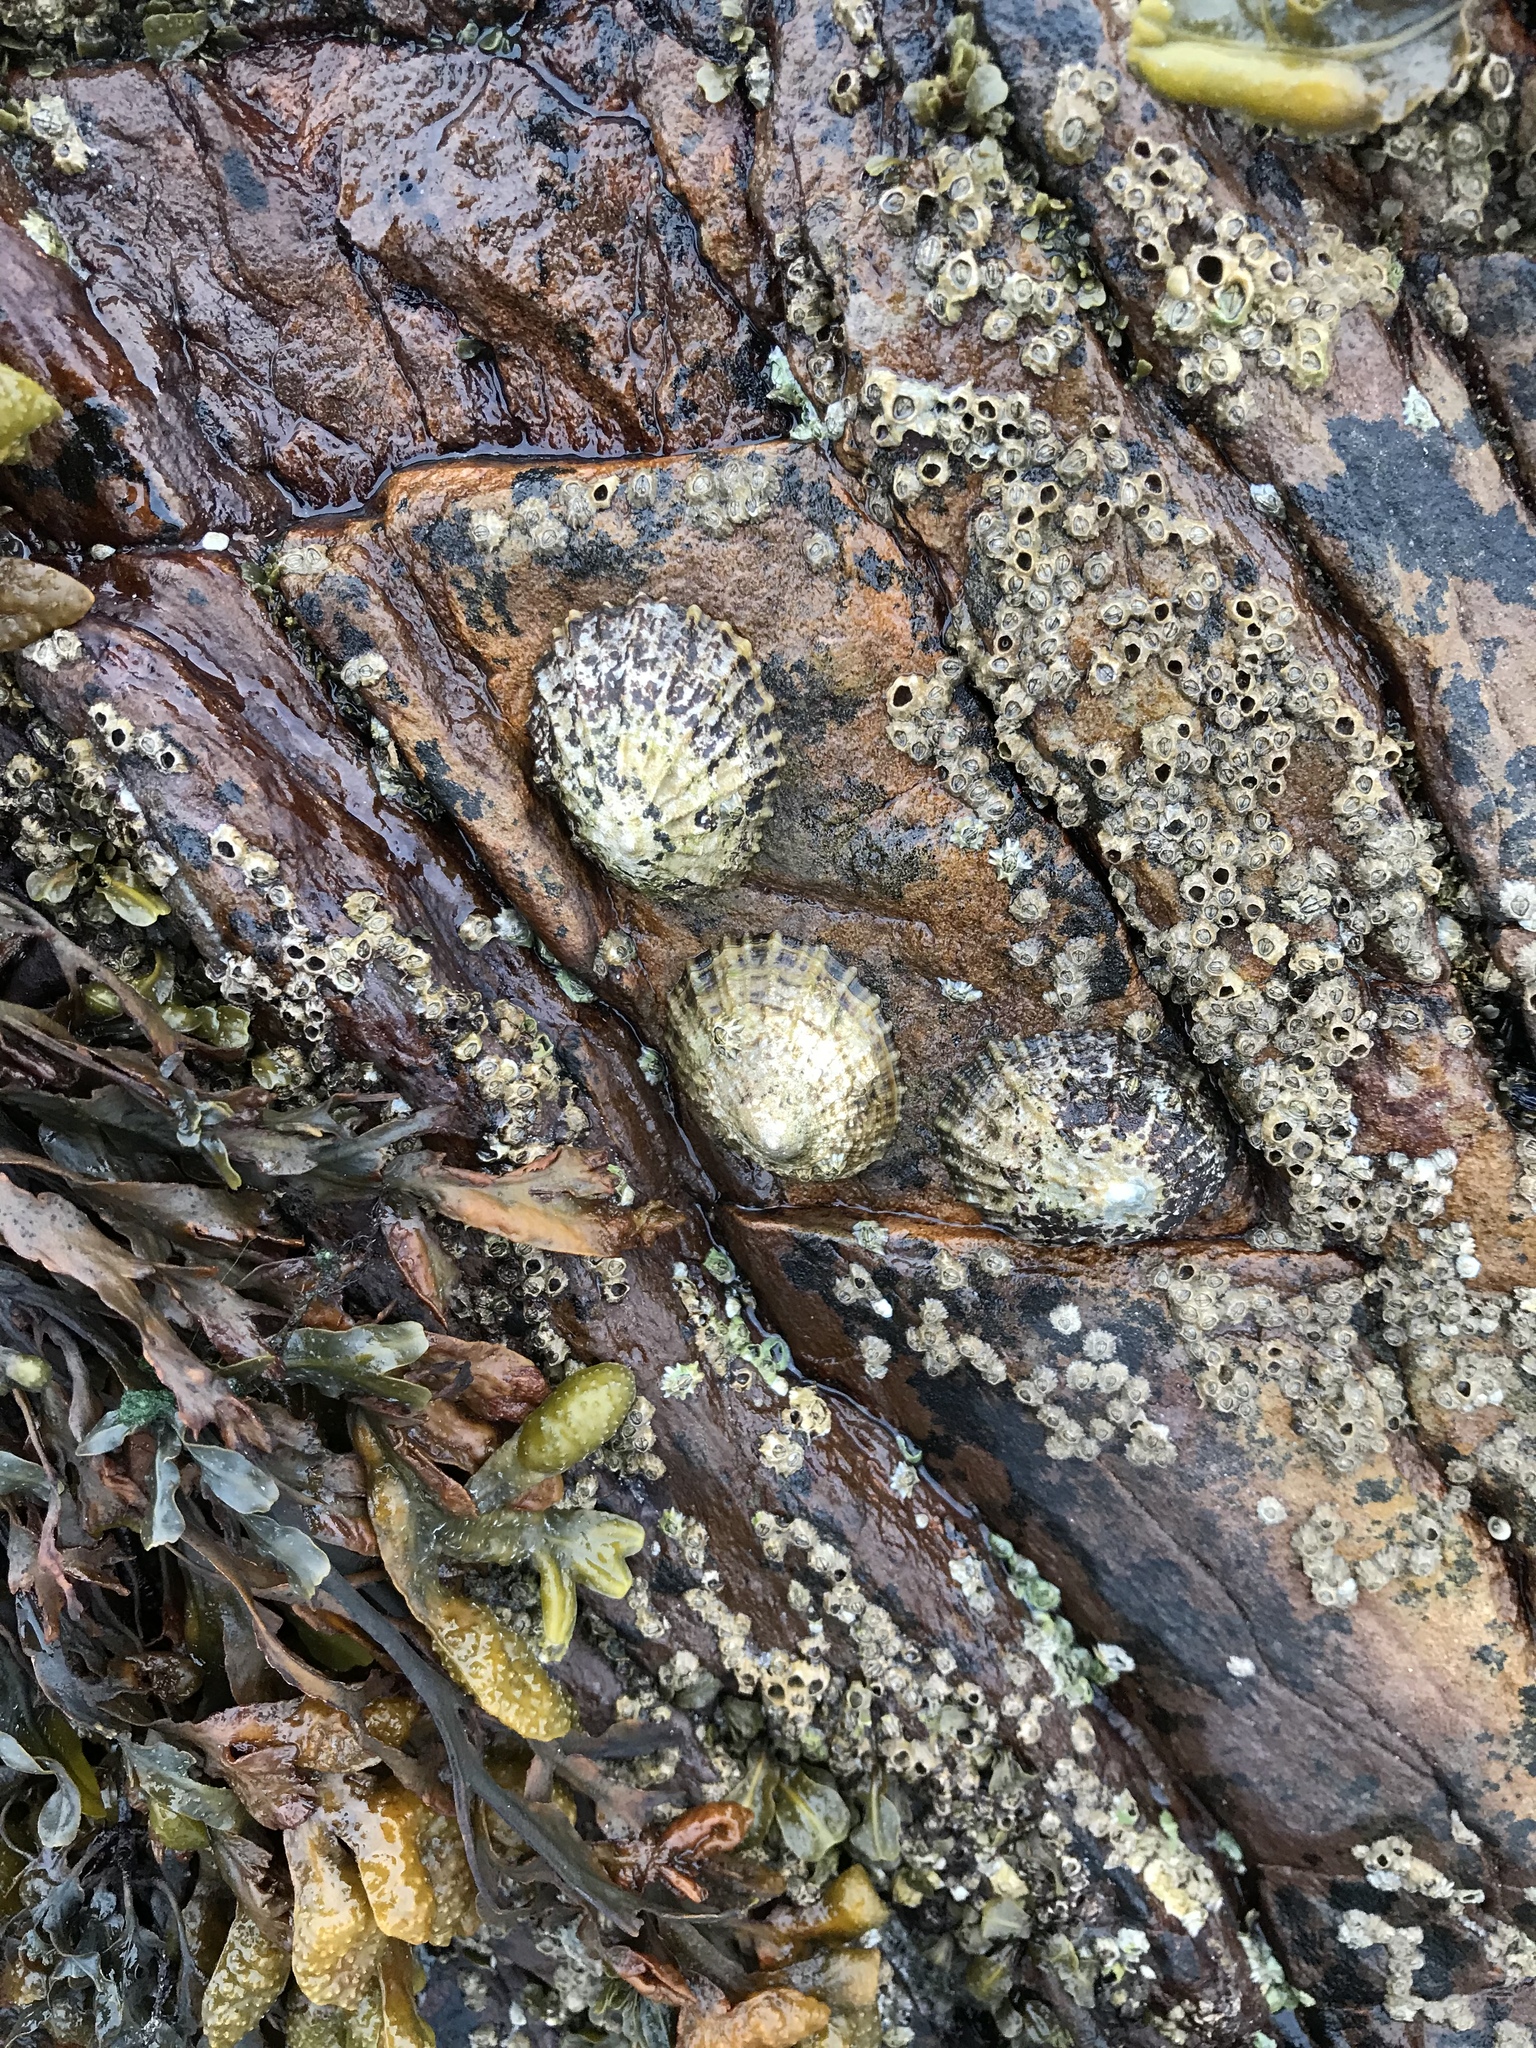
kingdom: Animalia
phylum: Mollusca
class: Gastropoda
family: Patellidae
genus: Patella
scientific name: Patella vulgata
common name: Common limpet
